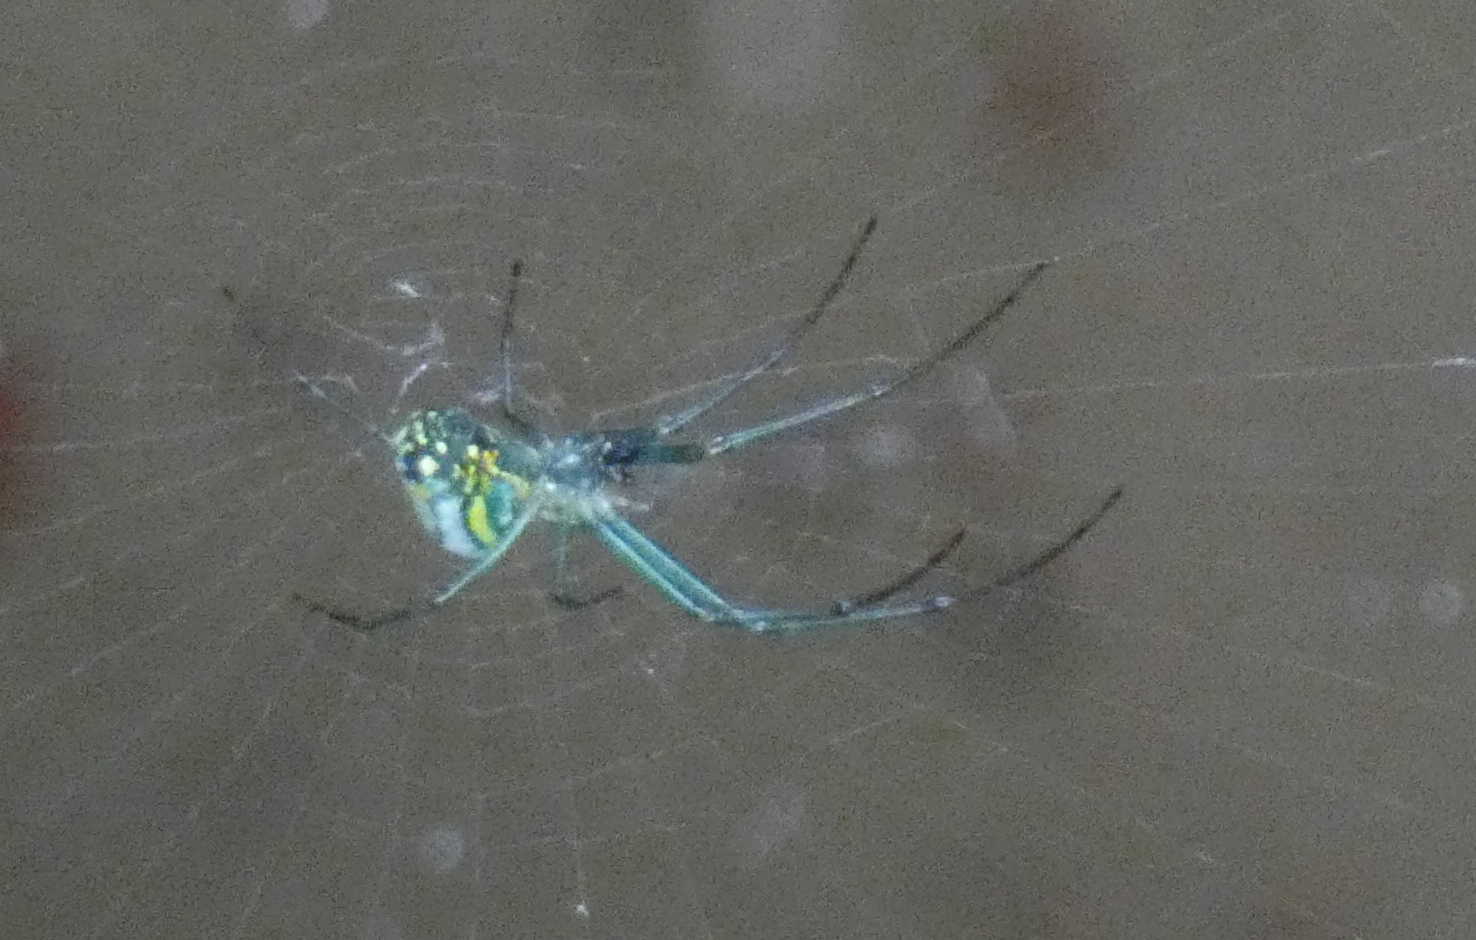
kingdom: Animalia
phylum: Arthropoda
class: Arachnida
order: Araneae
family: Tetragnathidae
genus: Leucauge
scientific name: Leucauge venusta
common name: Longjawed orb weavers
